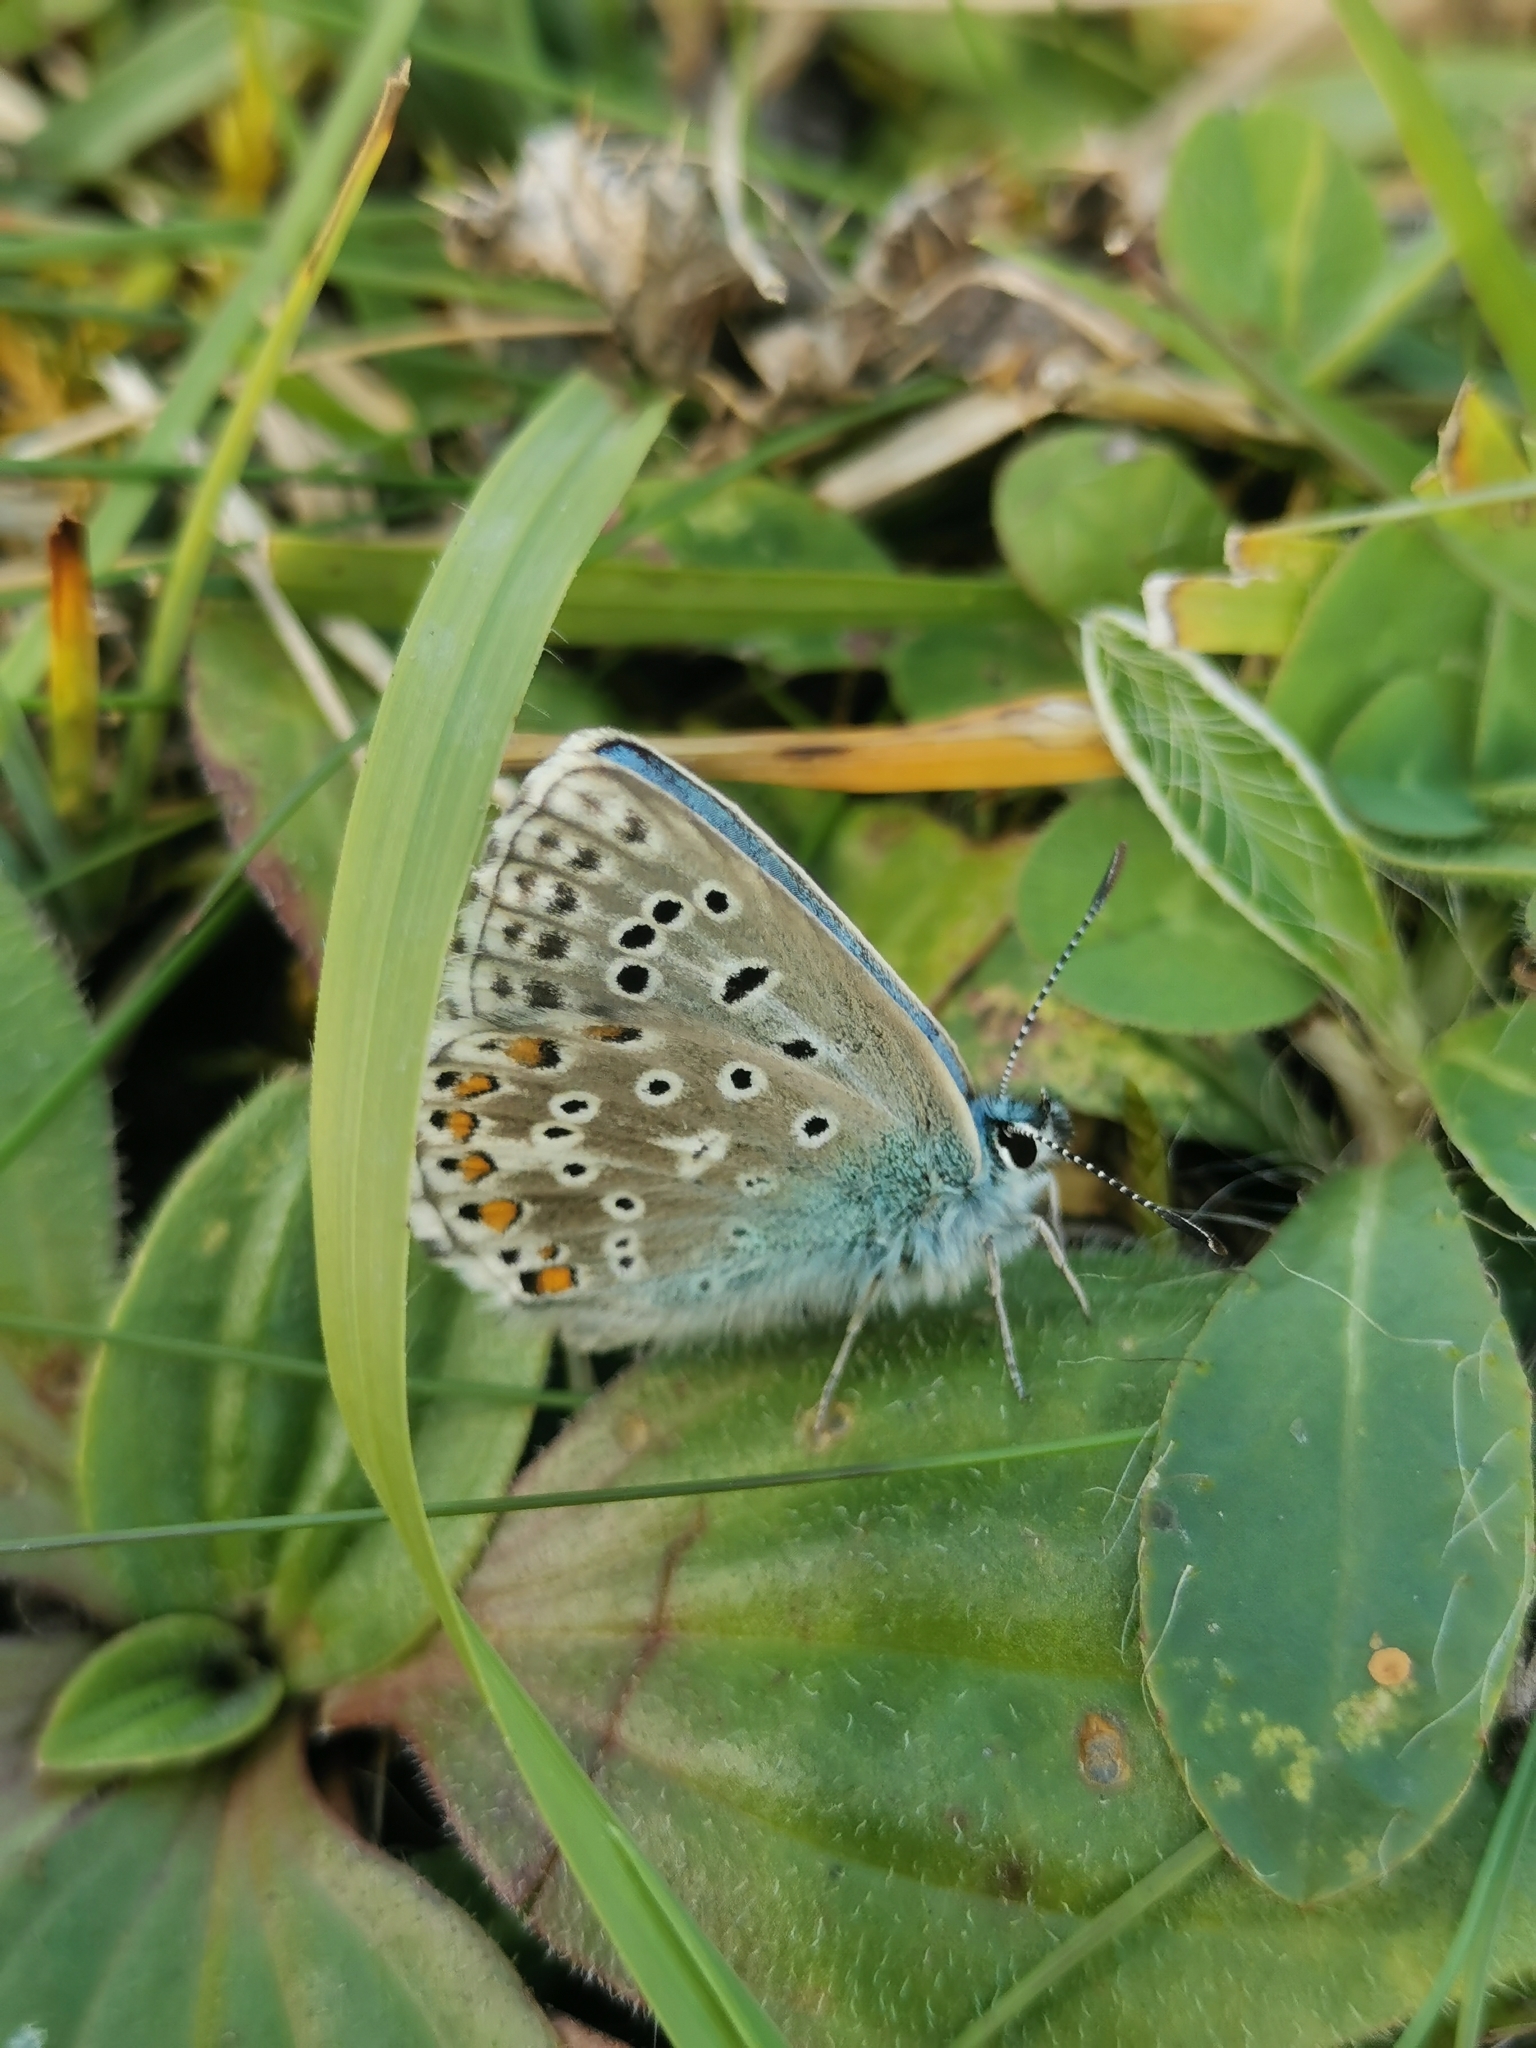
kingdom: Animalia
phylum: Arthropoda
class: Insecta
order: Lepidoptera
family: Lycaenidae
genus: Lysandra
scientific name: Lysandra bellargus
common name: Adonis blue
